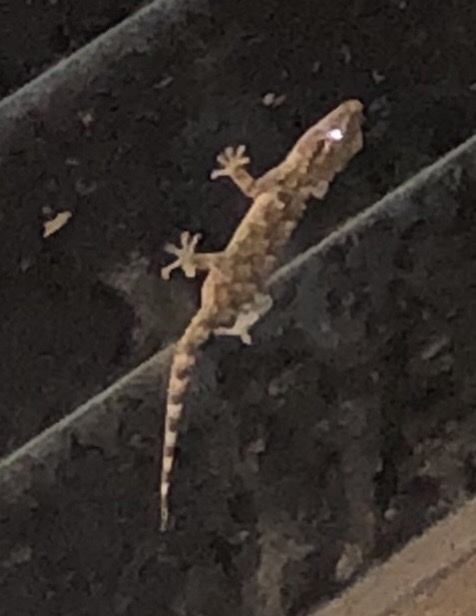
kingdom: Animalia
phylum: Chordata
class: Squamata
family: Phyllodactylidae
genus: Tarentola
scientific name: Tarentola mauritanica
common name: Moorish gecko
